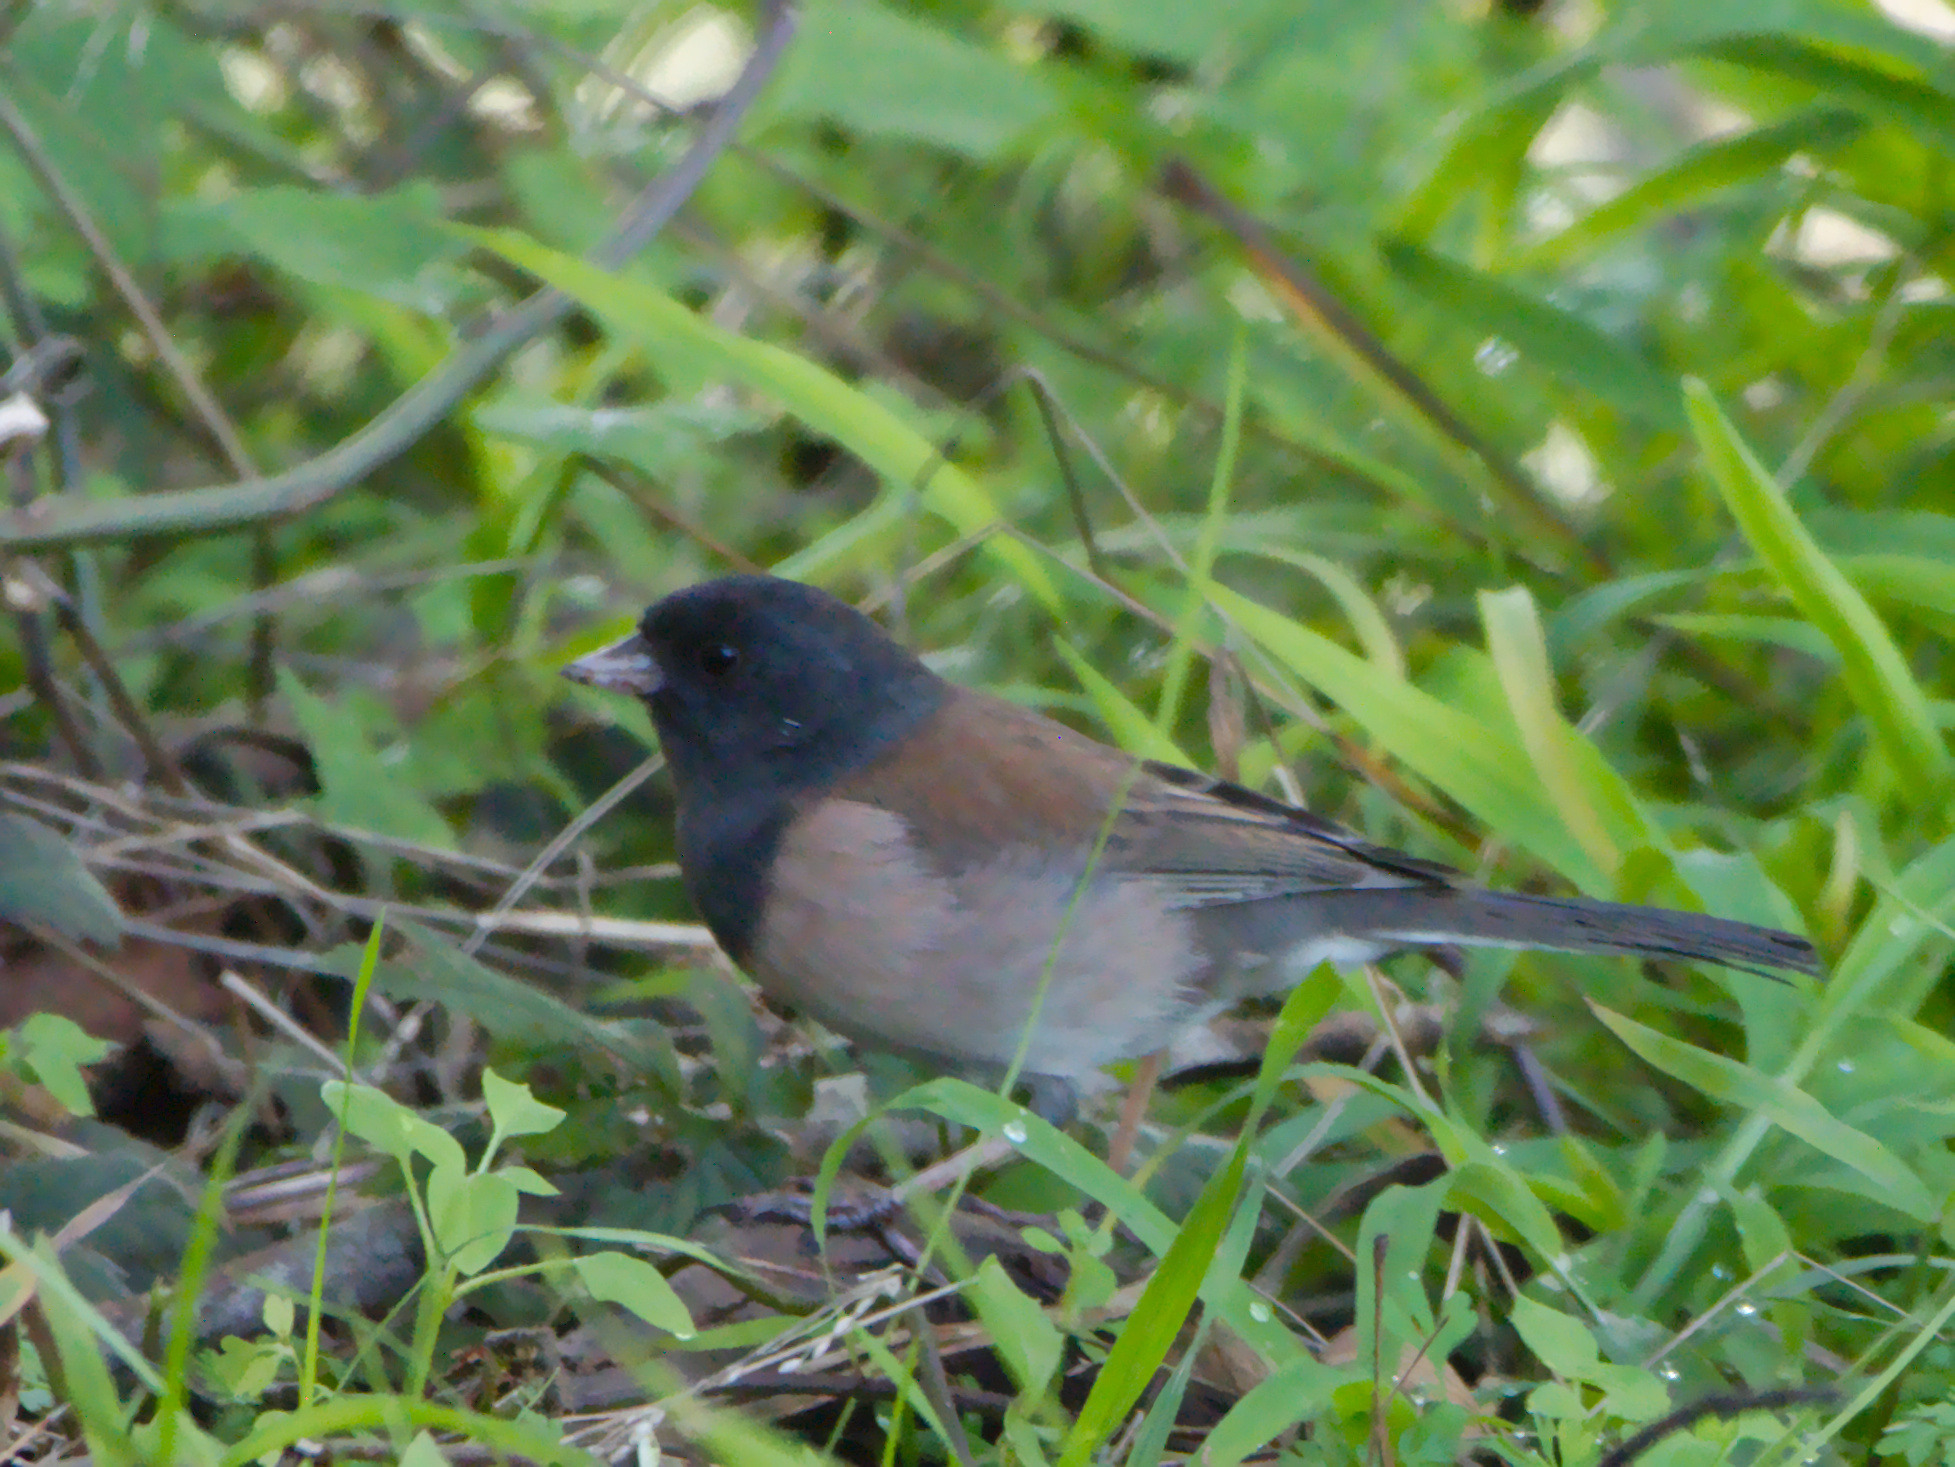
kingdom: Animalia
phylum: Chordata
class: Aves
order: Passeriformes
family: Passerellidae
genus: Junco
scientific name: Junco hyemalis
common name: Dark-eyed junco
